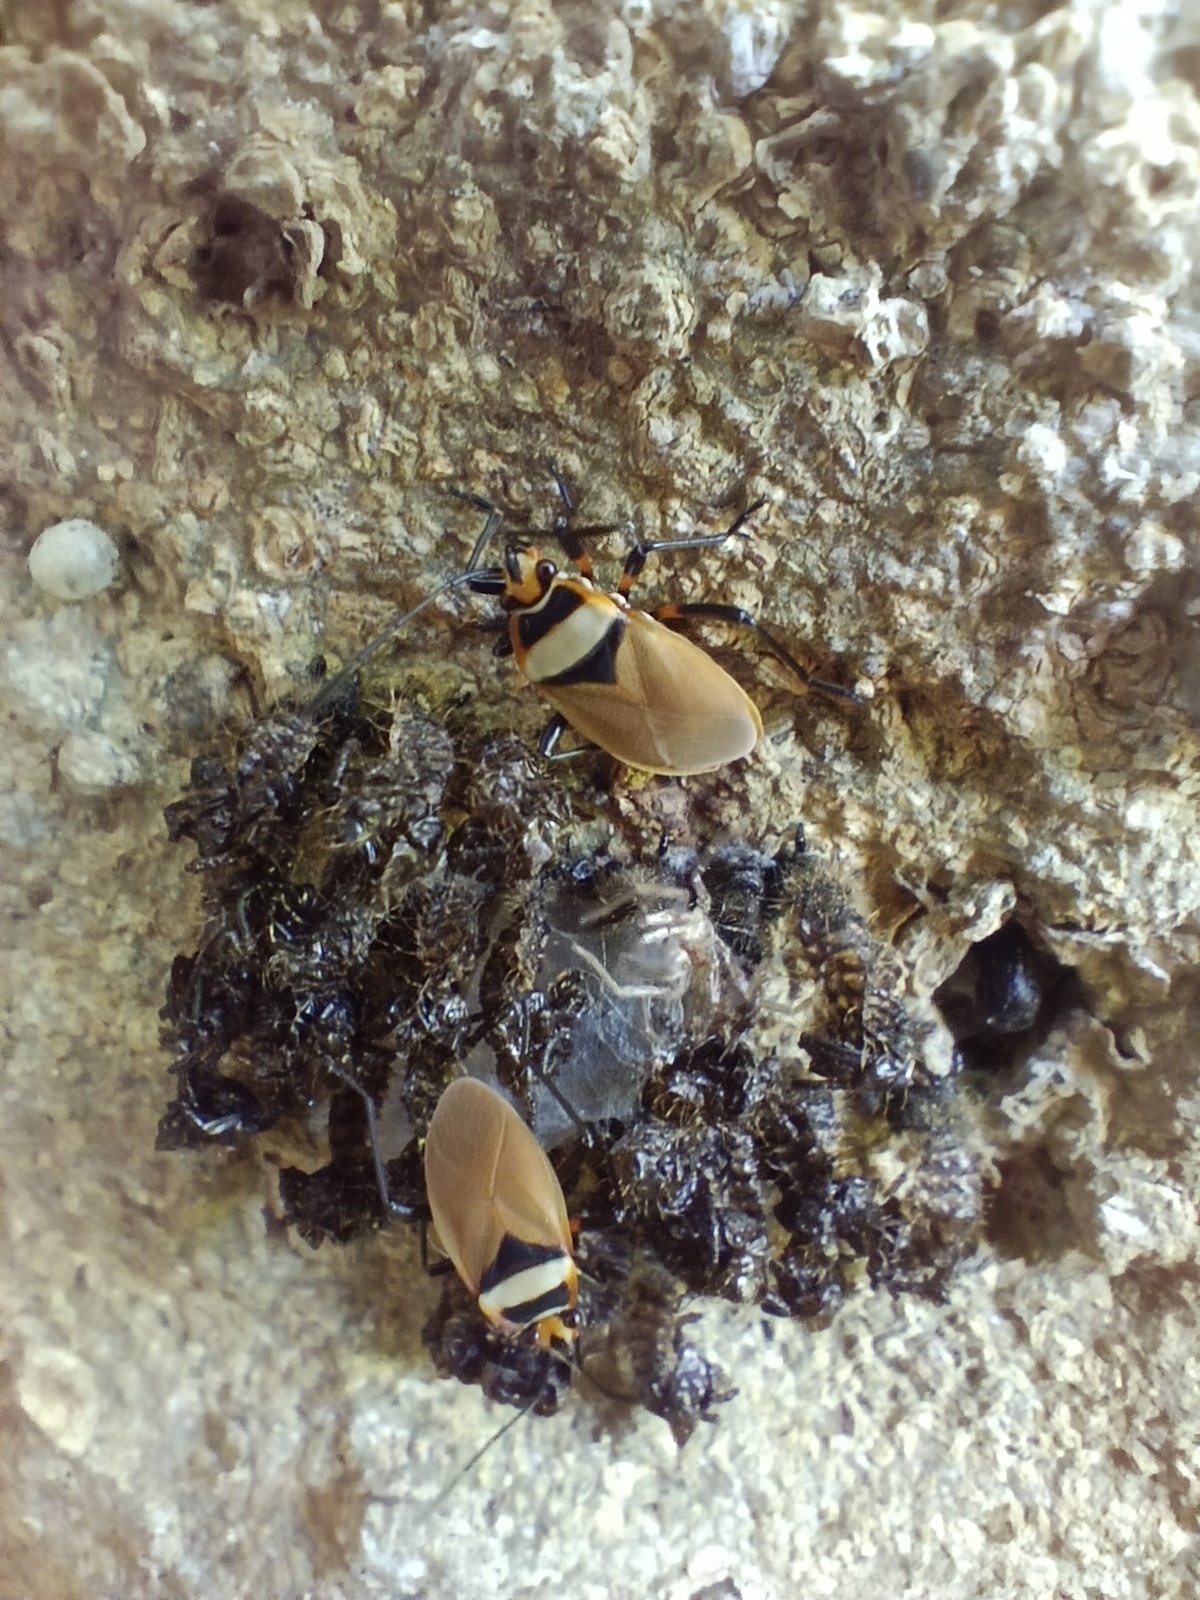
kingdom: Animalia
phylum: Arthropoda
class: Insecta
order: Hemiptera
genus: Cenaeus
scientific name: Cenaeus
